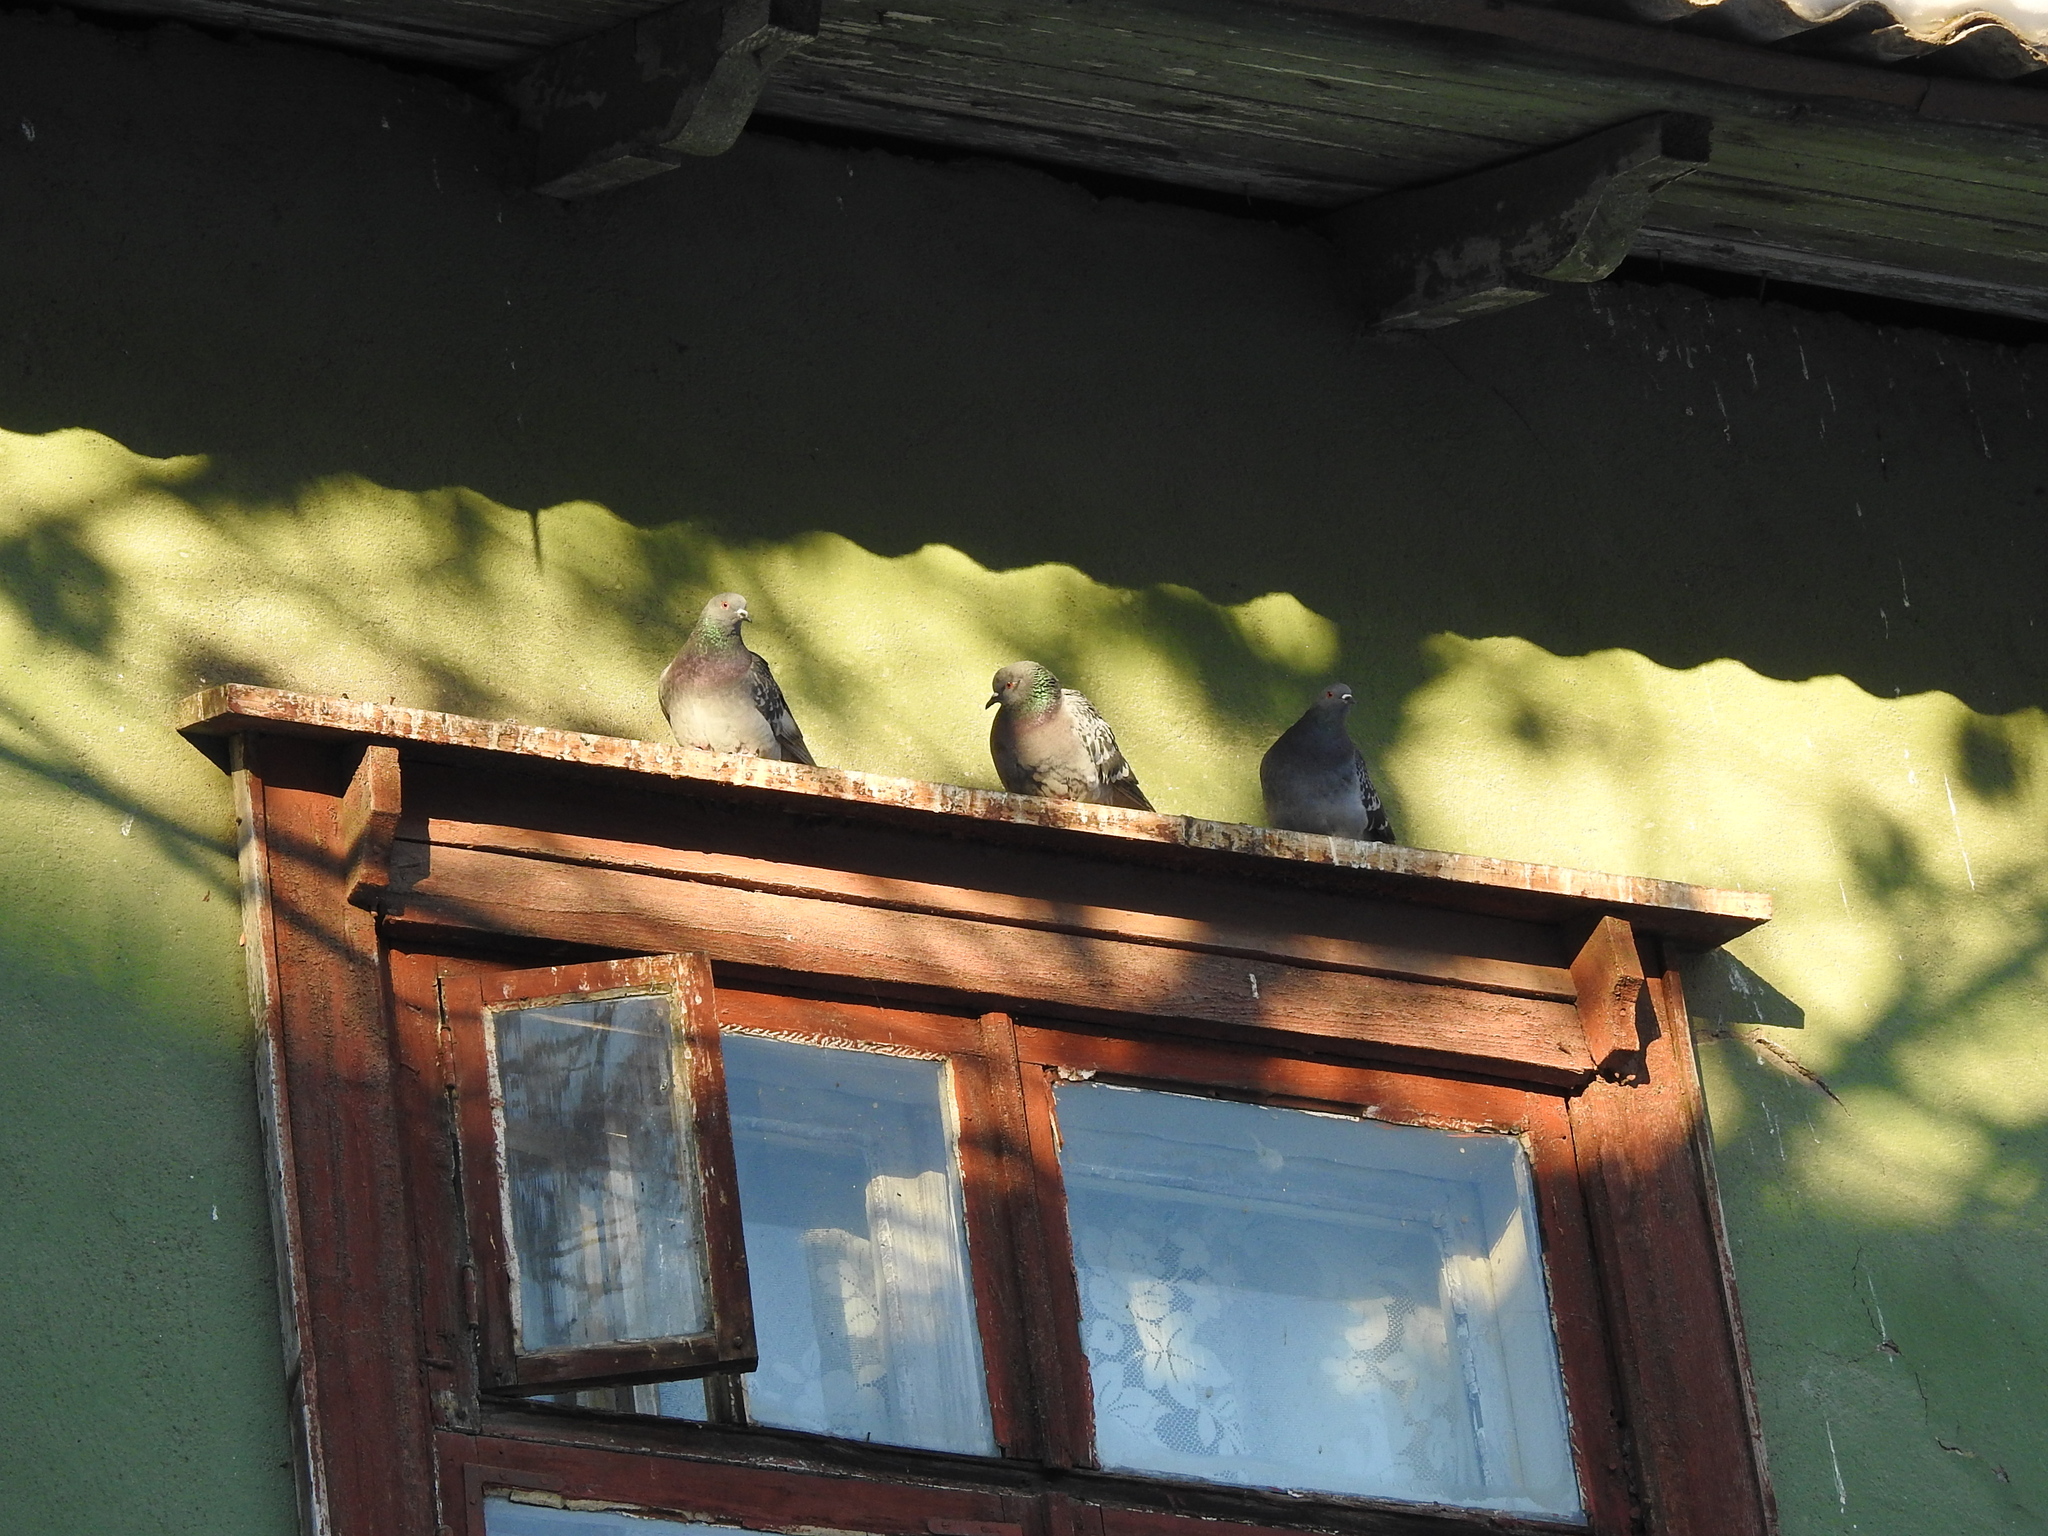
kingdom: Animalia
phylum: Chordata
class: Aves
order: Columbiformes
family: Columbidae
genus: Columba
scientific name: Columba livia
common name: Rock pigeon
